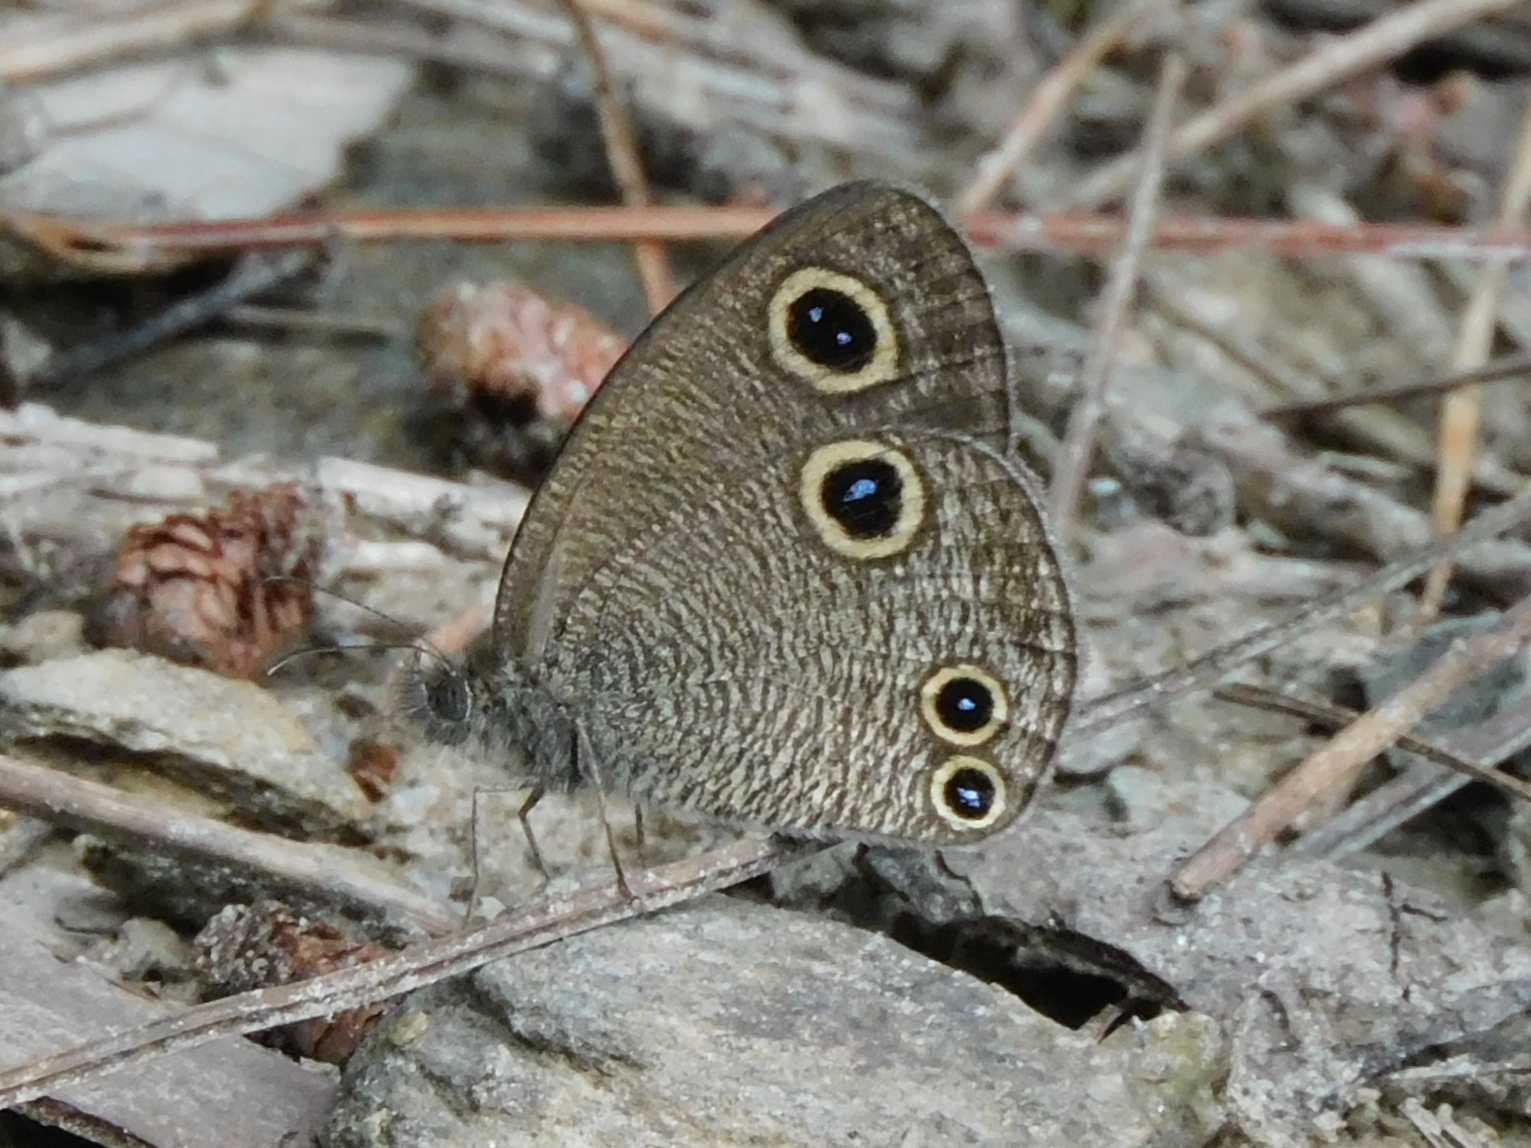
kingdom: Animalia
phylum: Arthropoda
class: Insecta
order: Lepidoptera
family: Nymphalidae
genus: Ypthima
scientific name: Ypthima nareda
